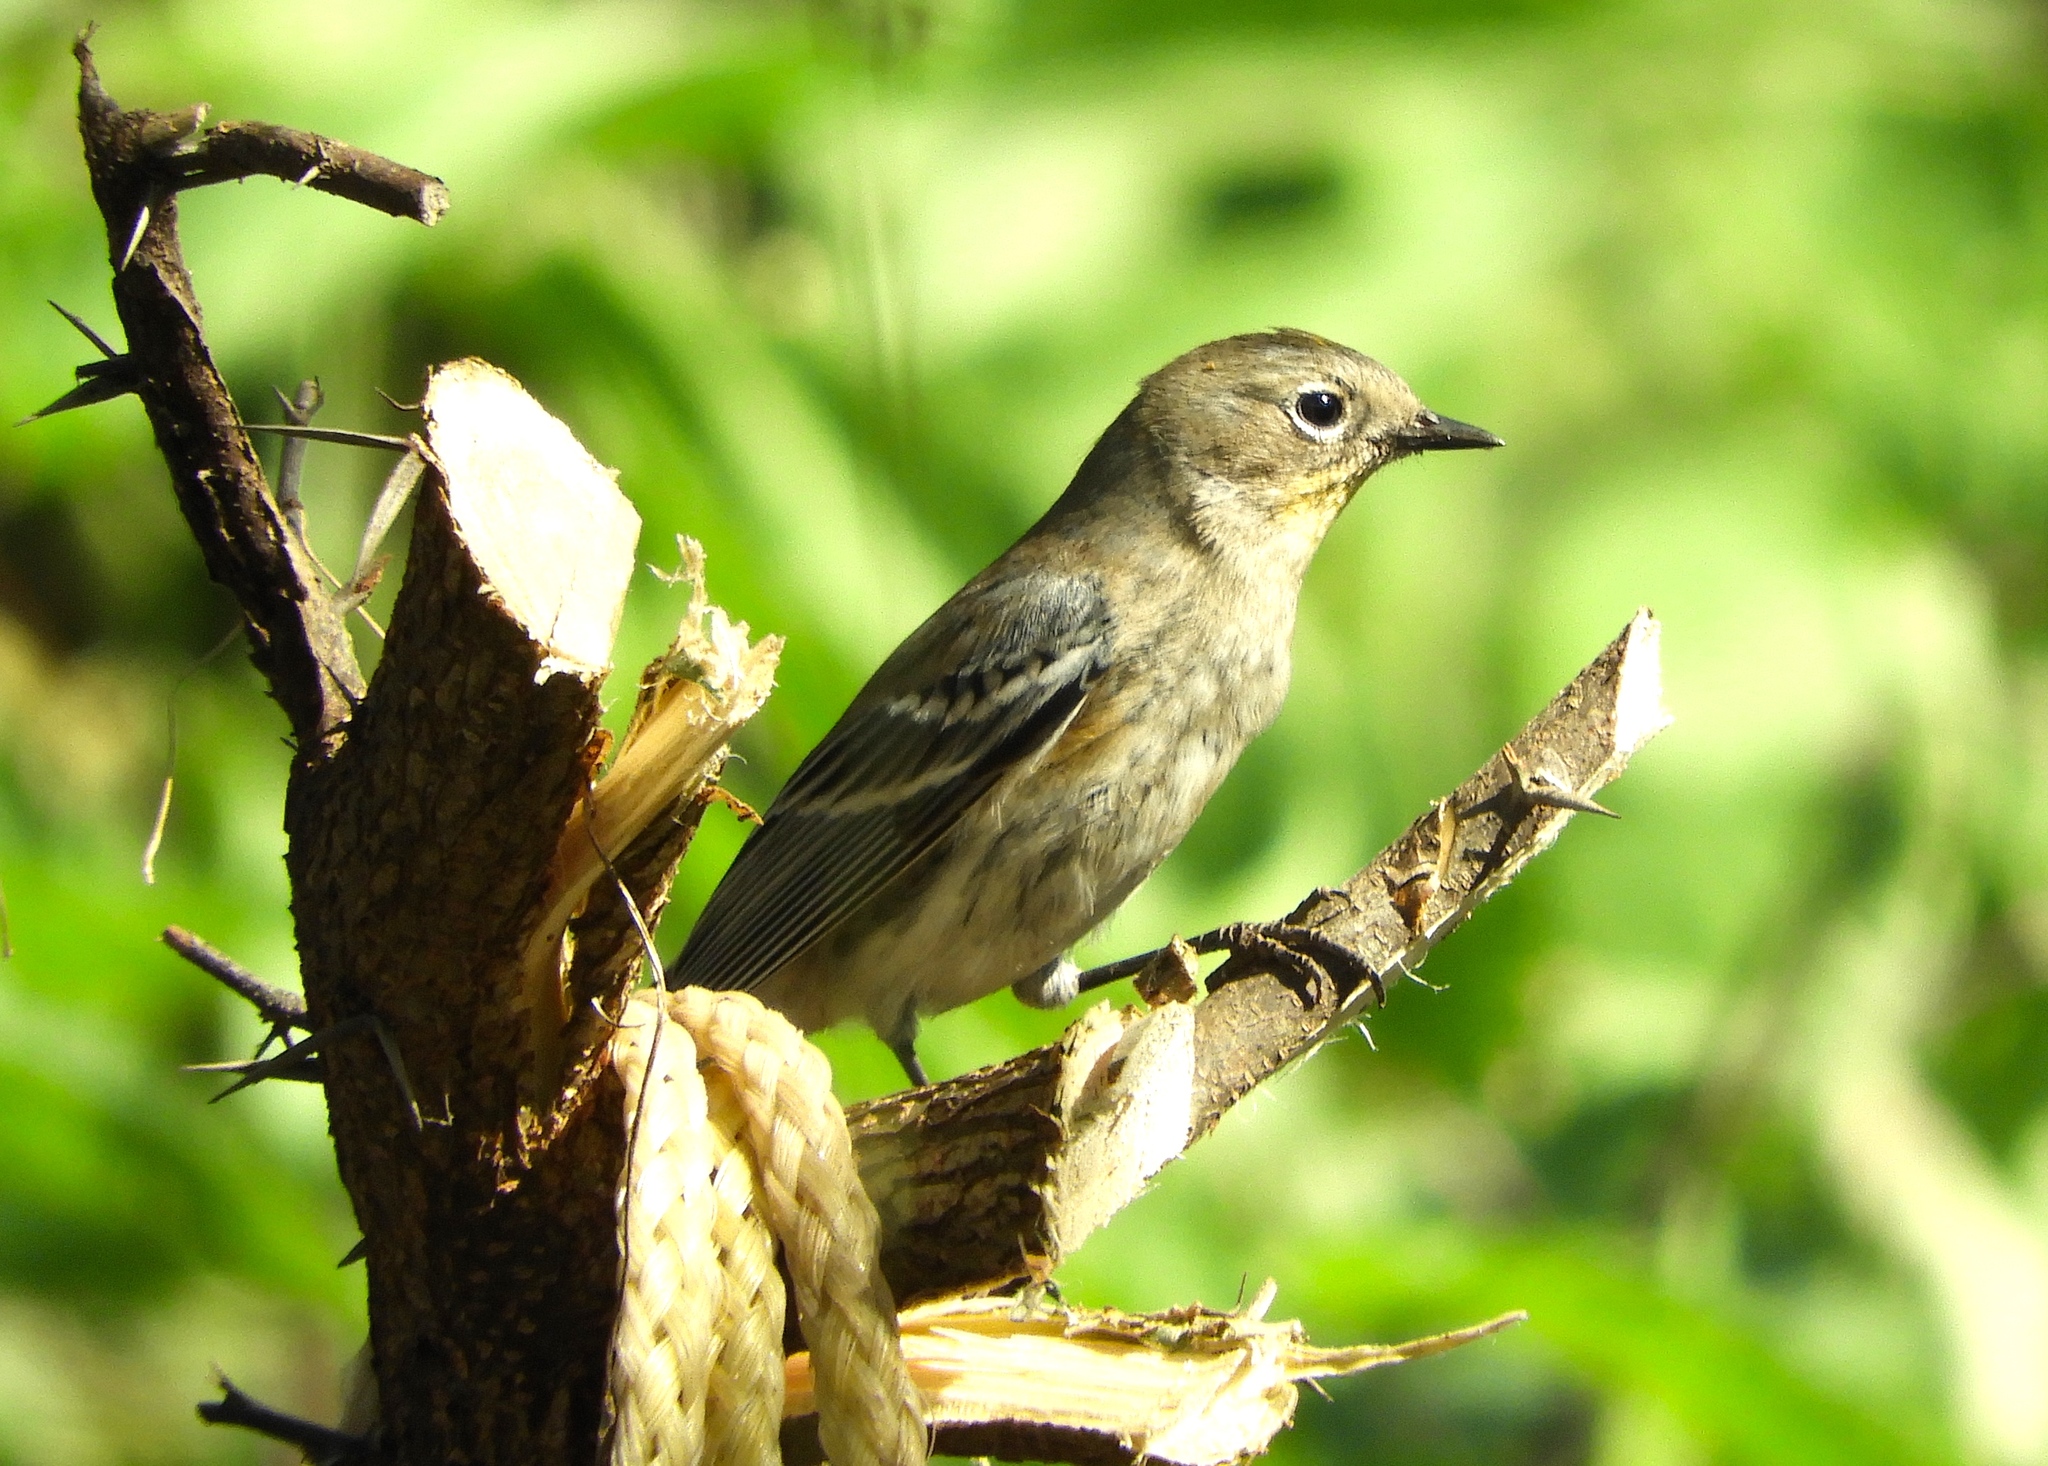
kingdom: Animalia
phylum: Chordata
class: Aves
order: Passeriformes
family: Parulidae
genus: Setophaga
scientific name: Setophaga coronata
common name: Myrtle warbler
